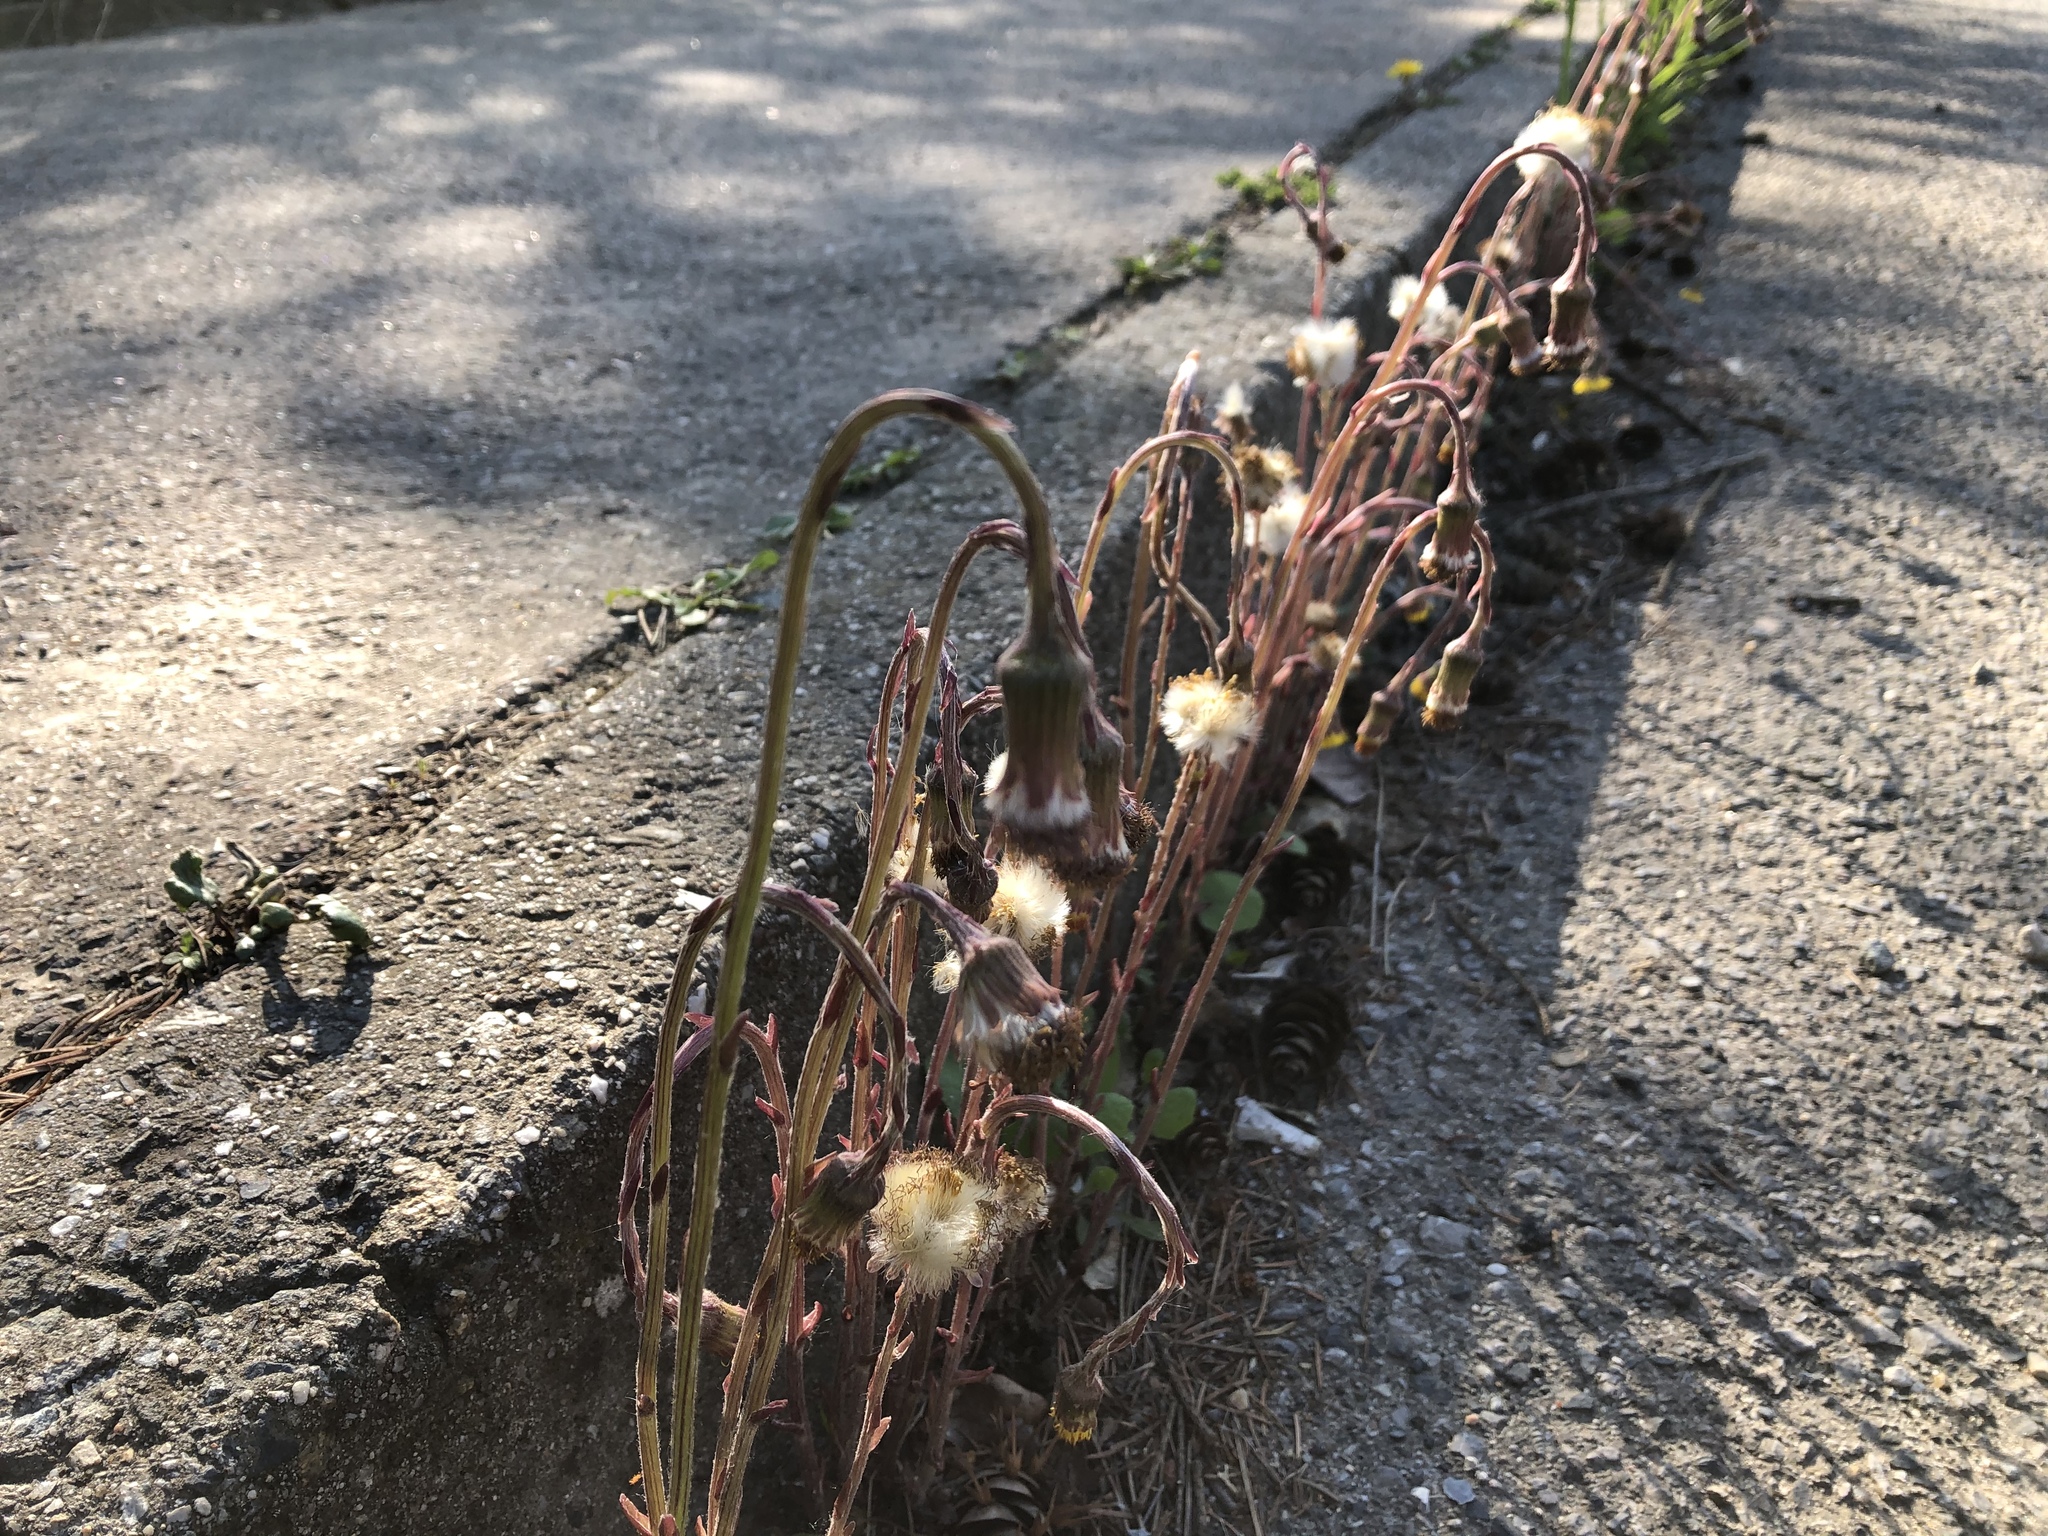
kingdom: Plantae
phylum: Tracheophyta
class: Magnoliopsida
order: Asterales
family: Asteraceae
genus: Tussilago
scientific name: Tussilago farfara
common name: Coltsfoot
